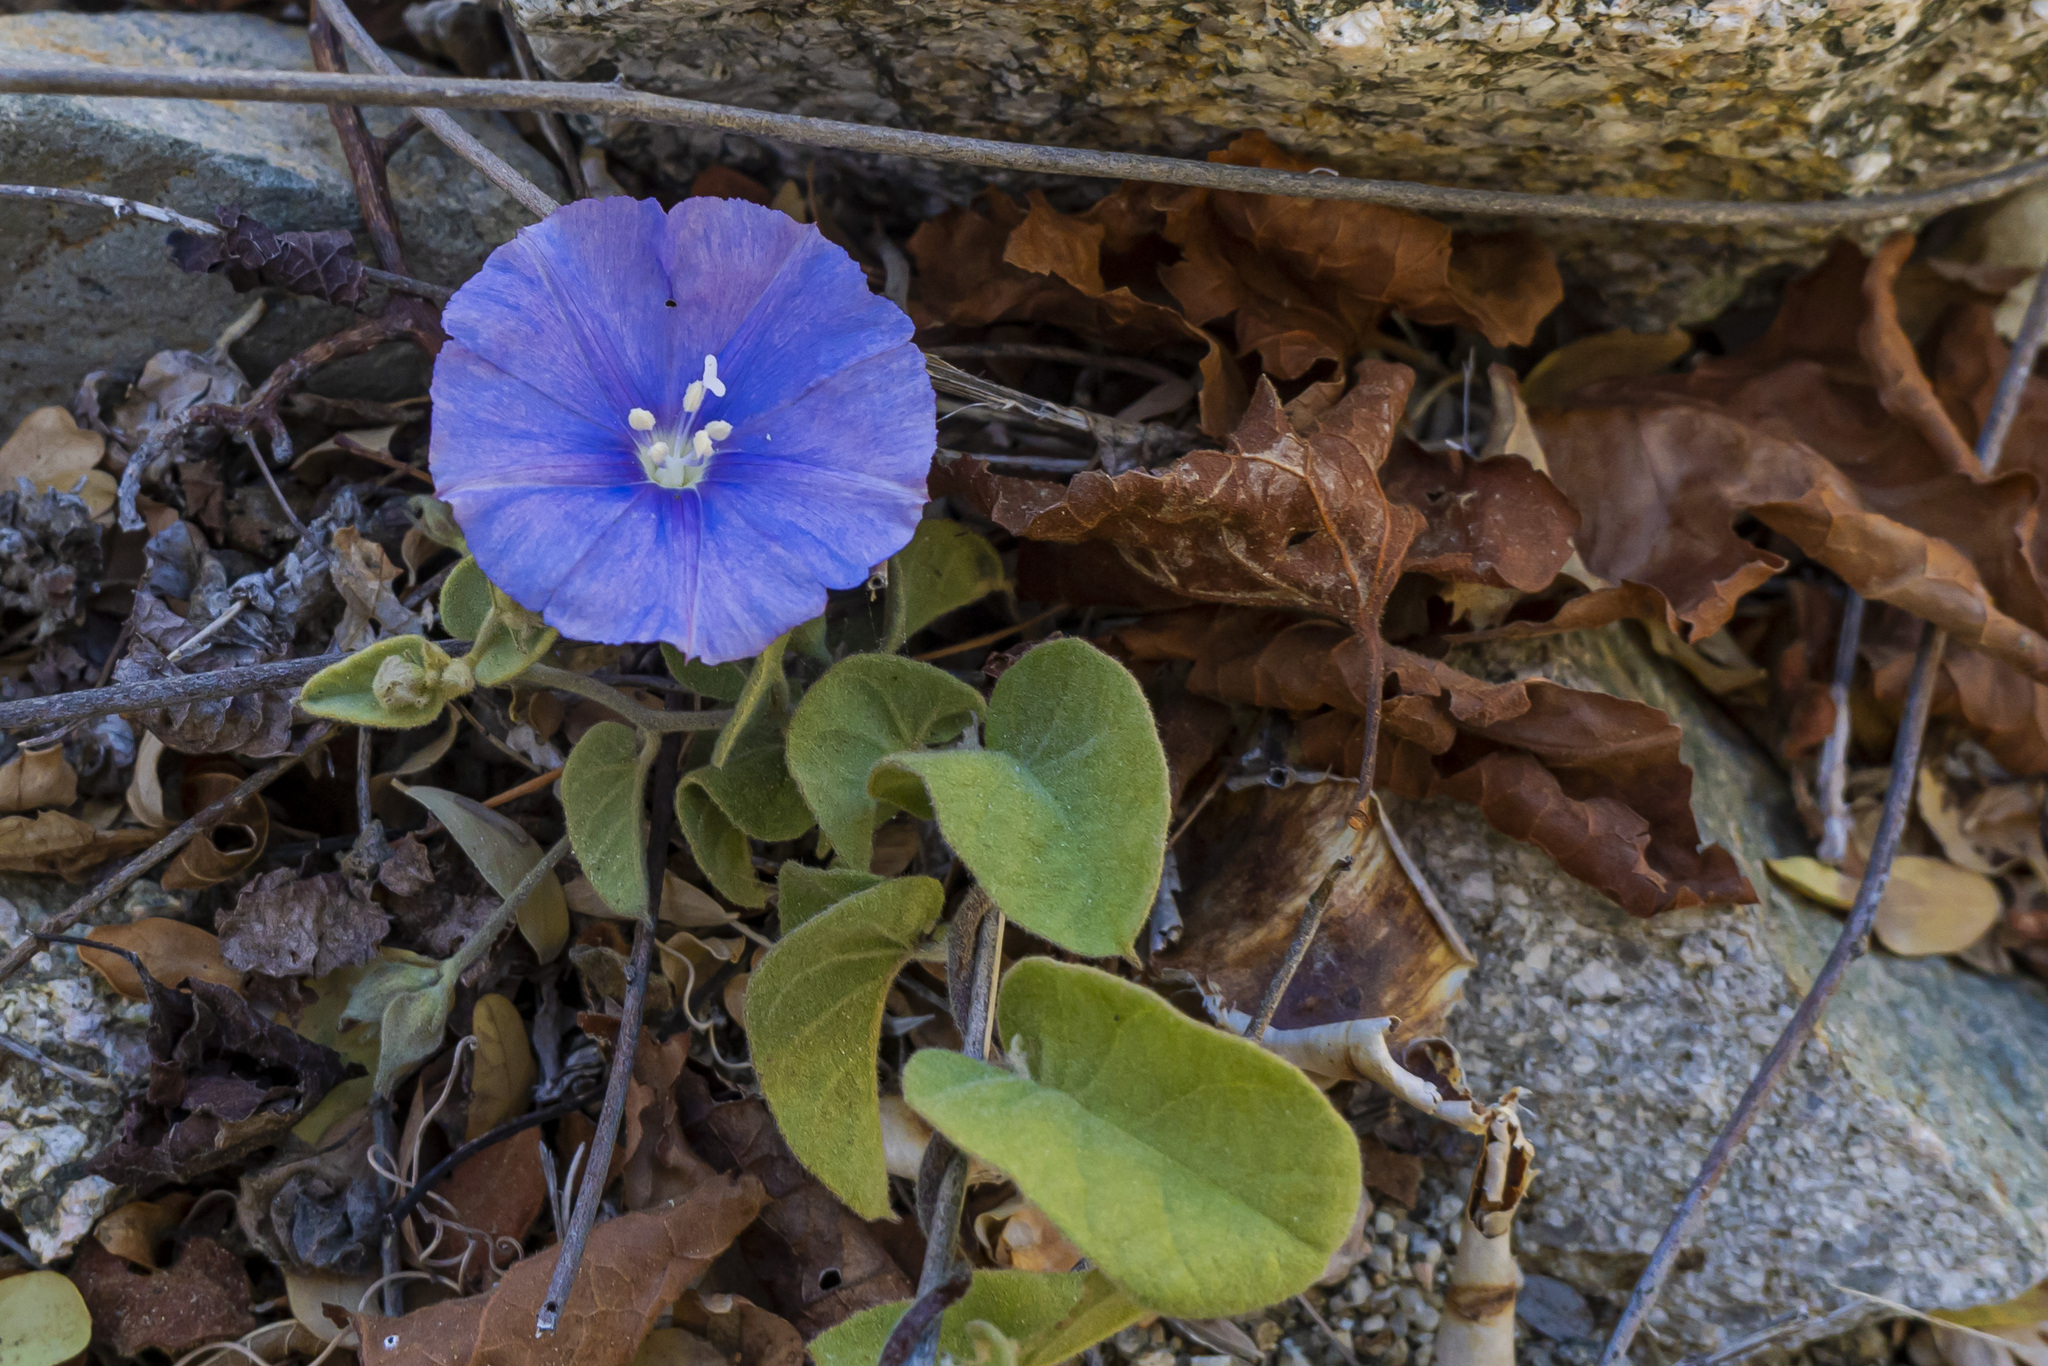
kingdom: Plantae
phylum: Tracheophyta
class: Magnoliopsida
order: Solanales
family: Convolvulaceae
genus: Jacquemontia
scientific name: Jacquemontia abutiloides
